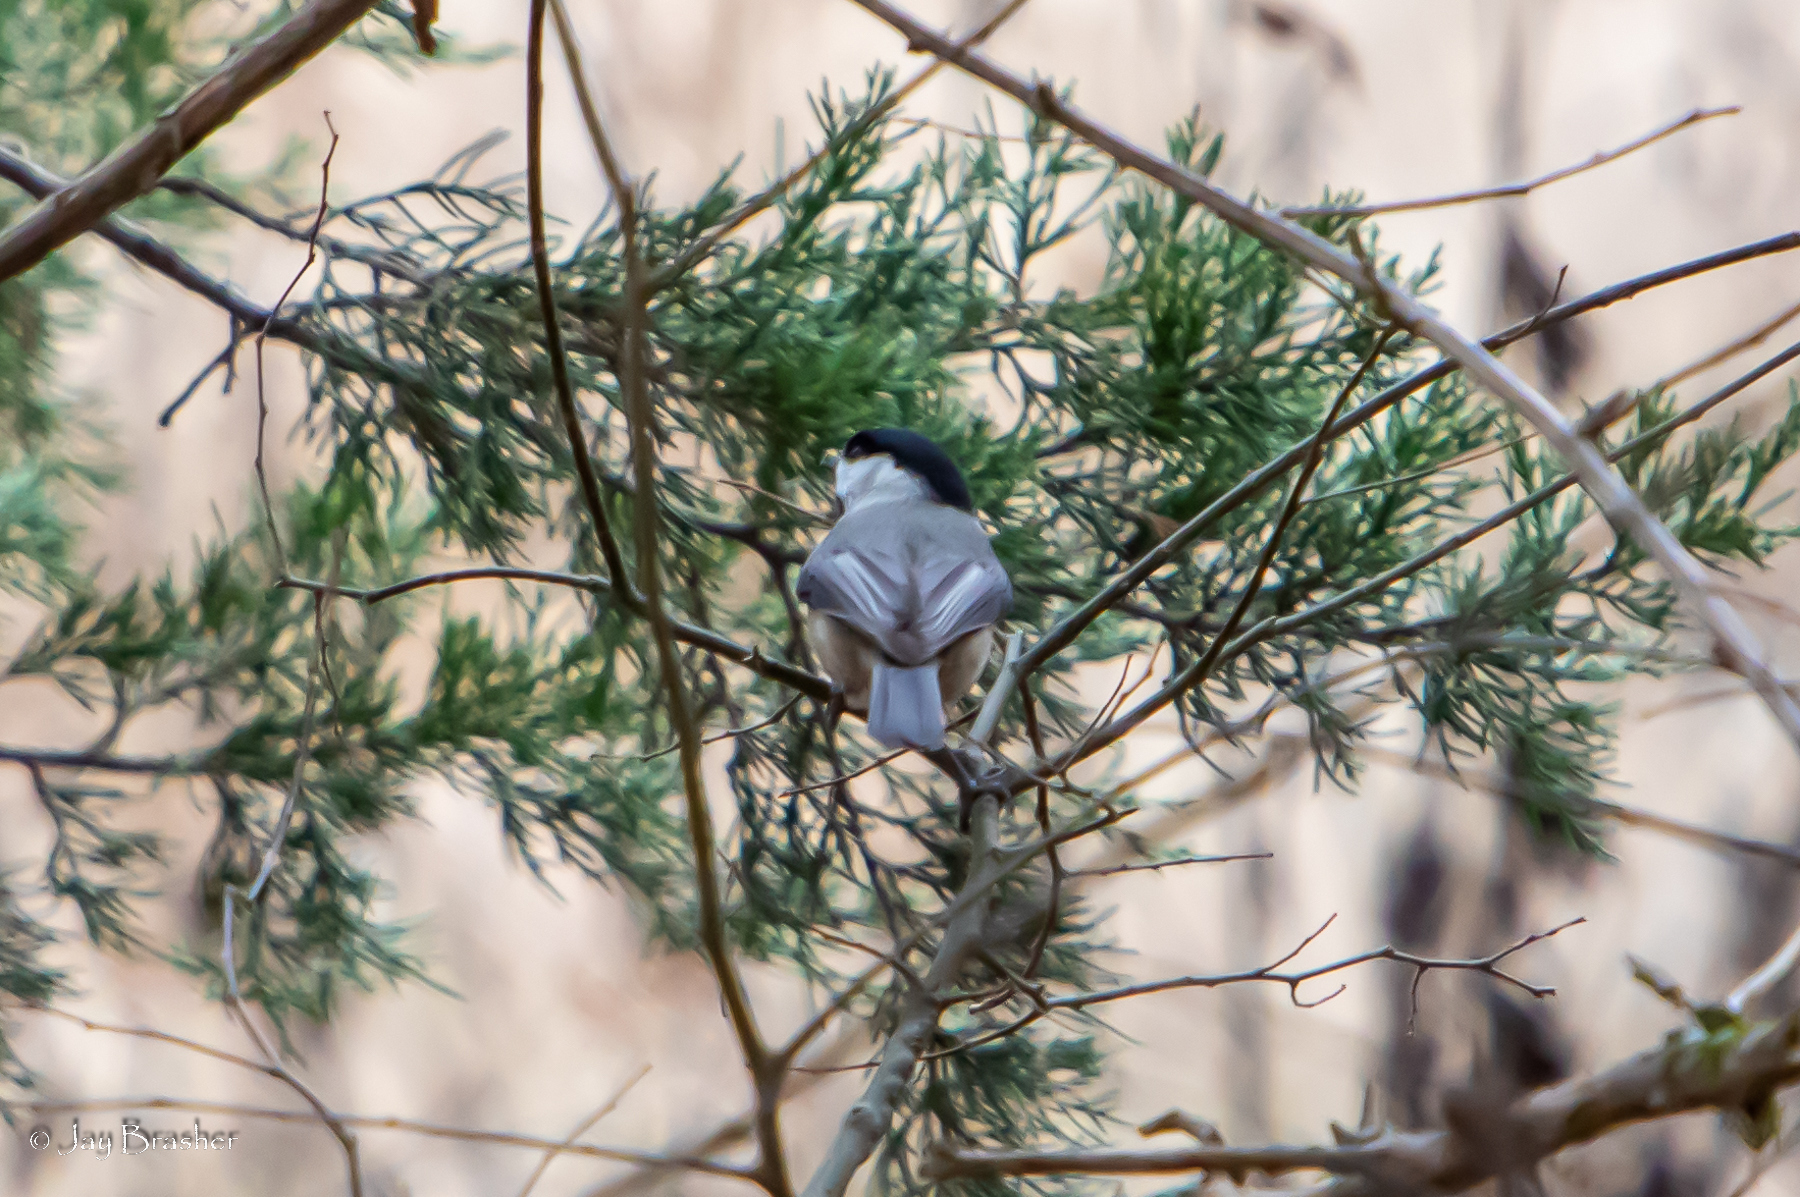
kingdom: Animalia
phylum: Chordata
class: Aves
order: Passeriformes
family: Paridae
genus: Poecile
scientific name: Poecile carolinensis
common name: Carolina chickadee
